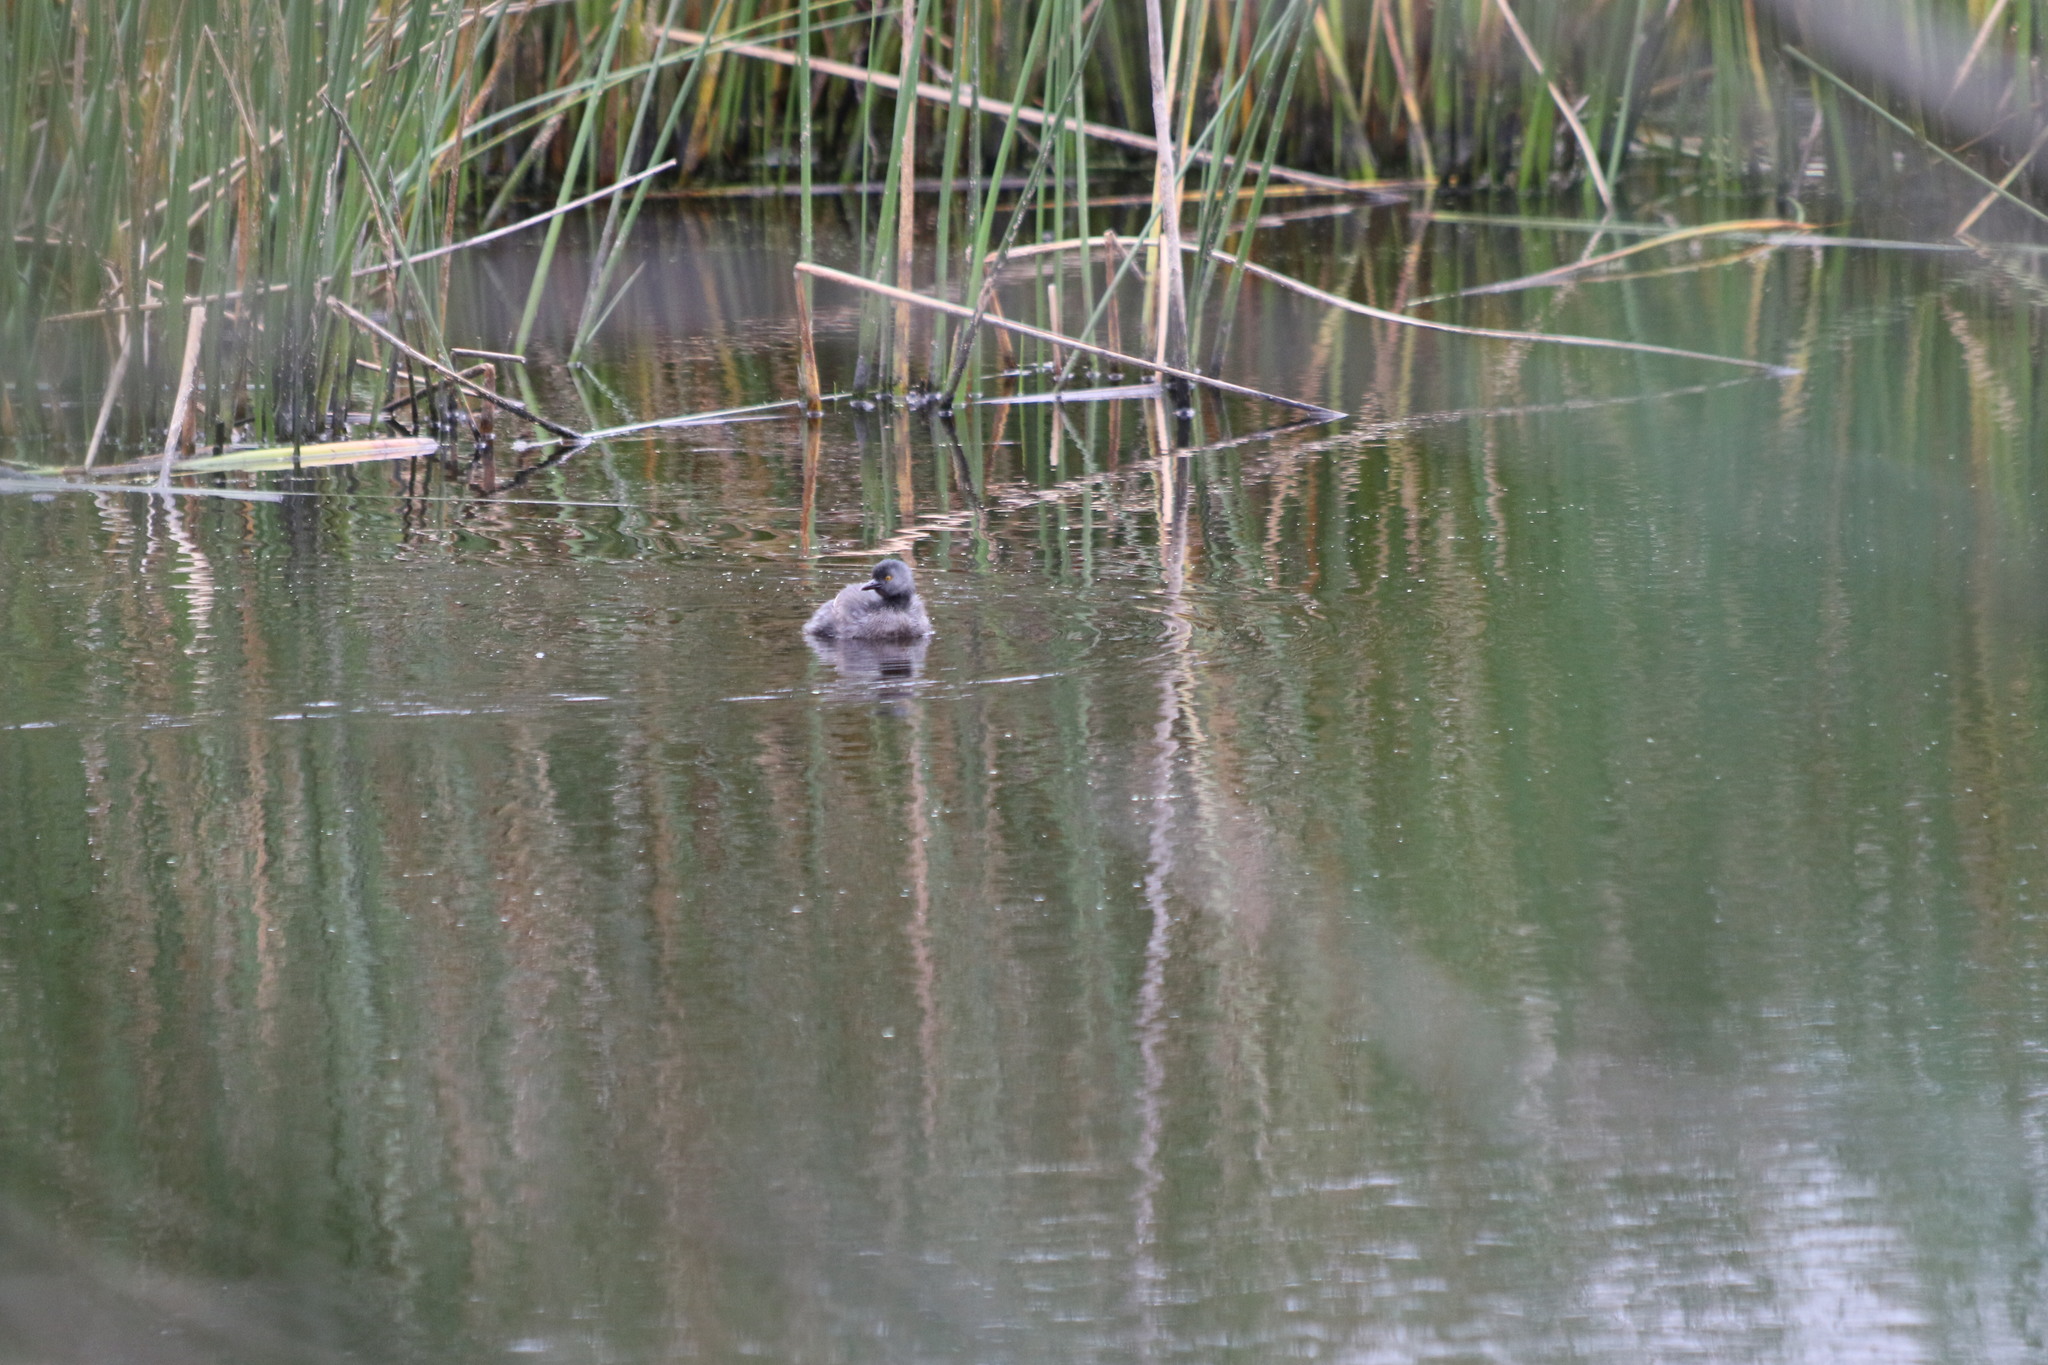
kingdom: Animalia
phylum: Chordata
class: Aves
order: Podicipediformes
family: Podicipedidae
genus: Tachybaptus
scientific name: Tachybaptus dominicus
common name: Least grebe
